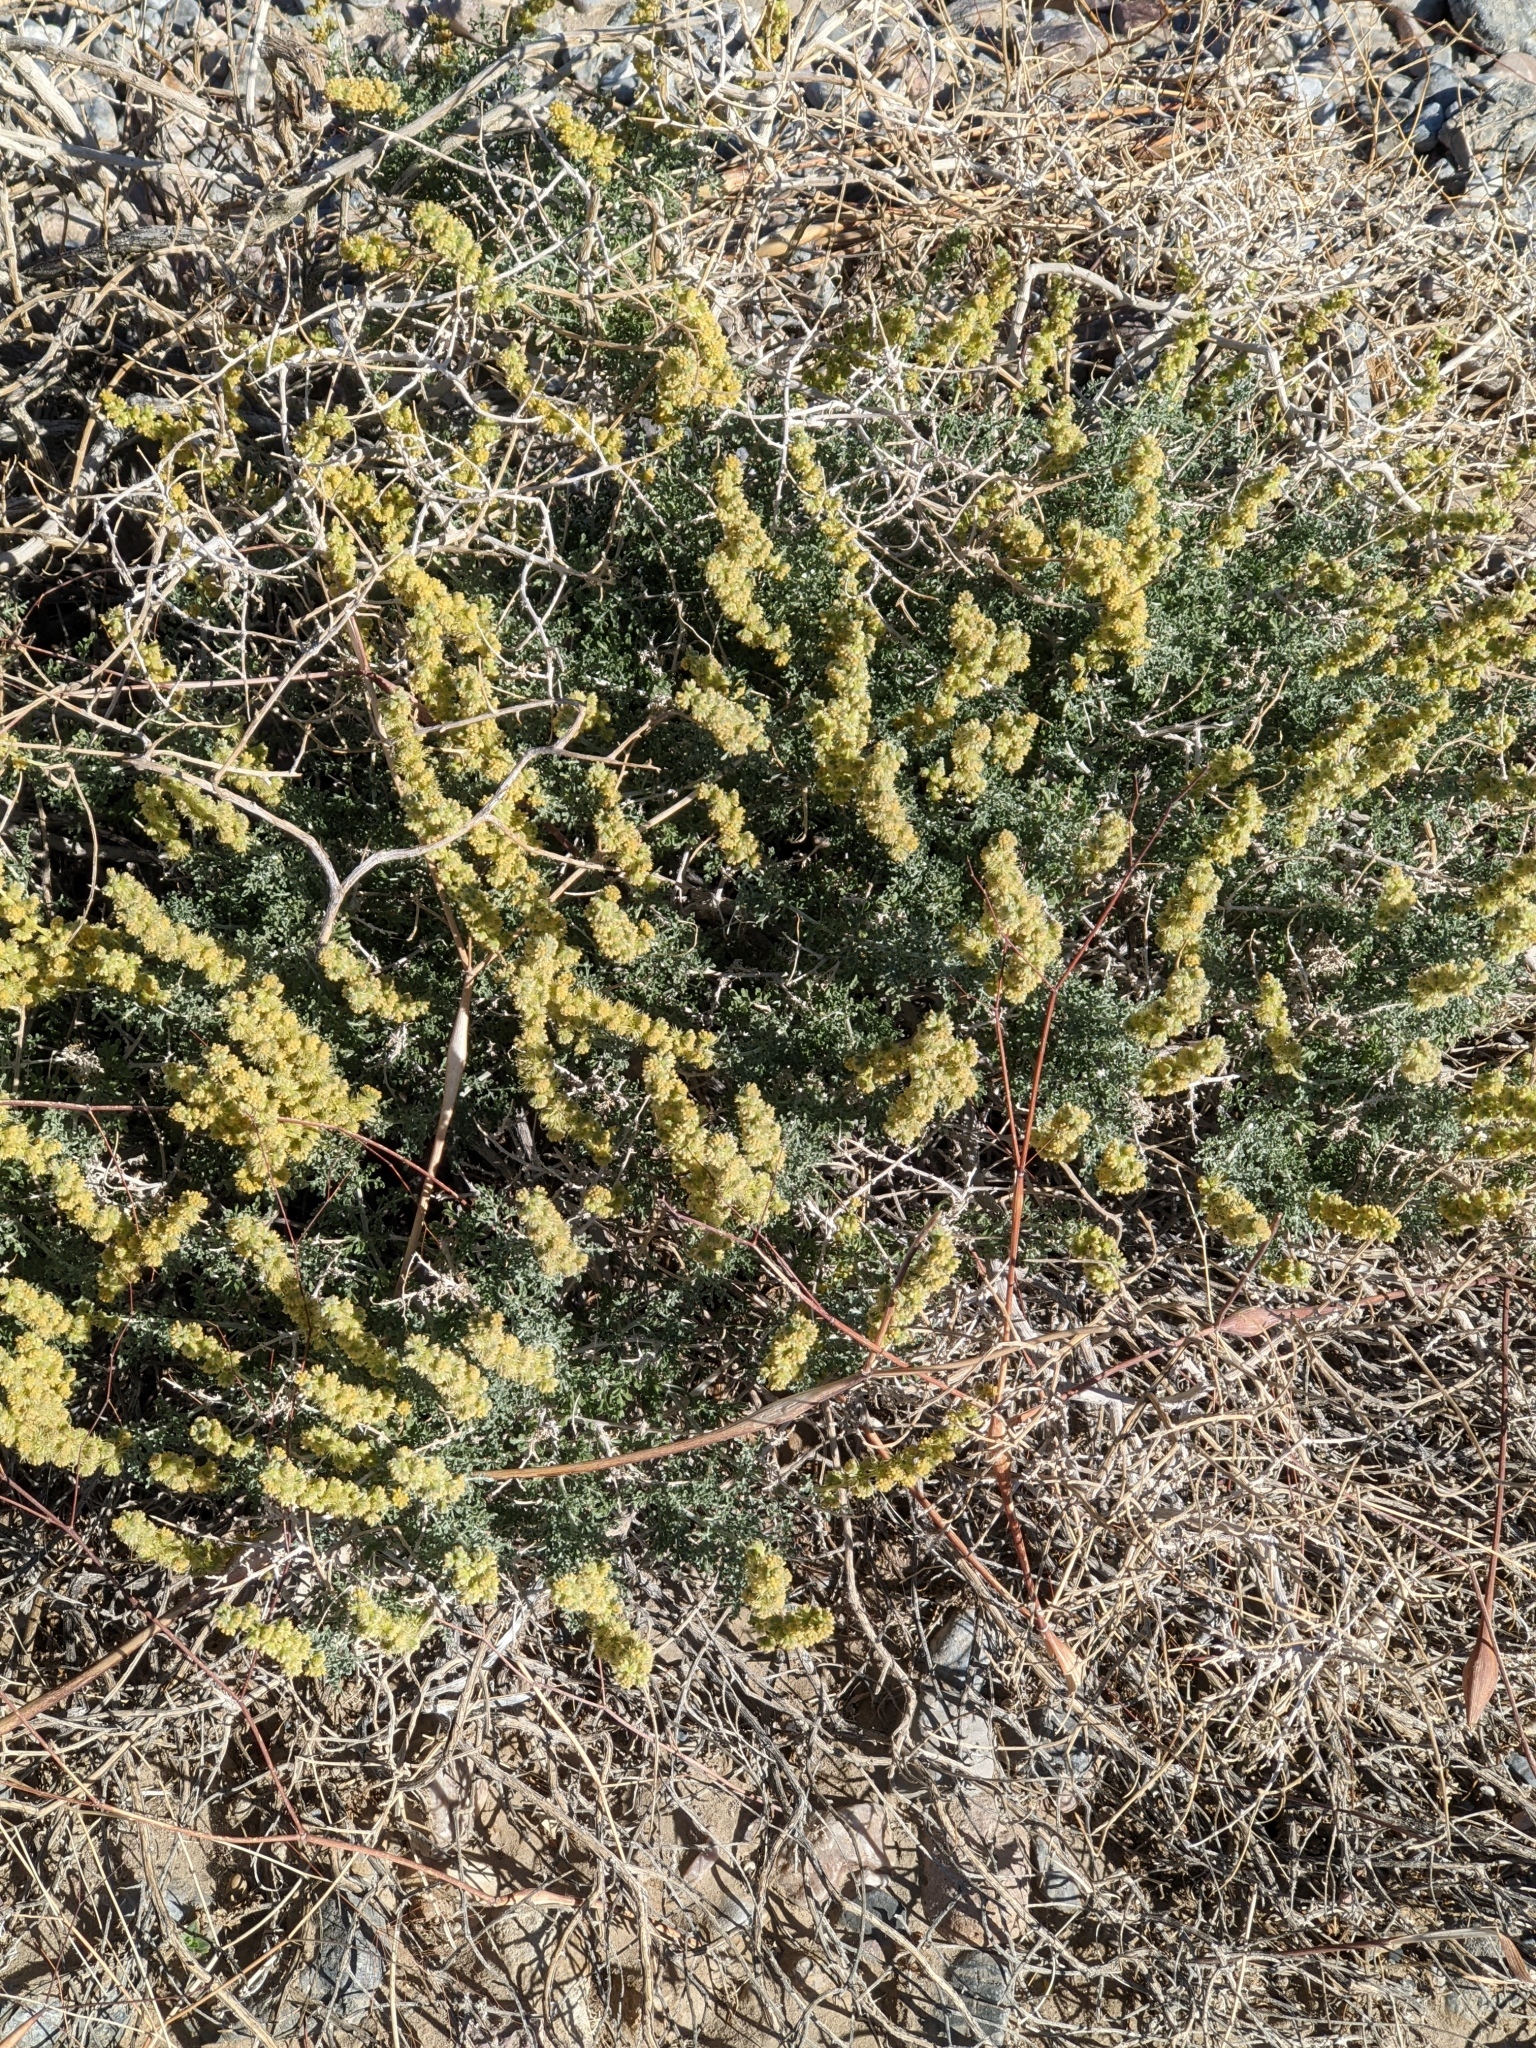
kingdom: Plantae
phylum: Tracheophyta
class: Magnoliopsida
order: Asterales
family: Asteraceae
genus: Ambrosia
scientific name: Ambrosia dumosa
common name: Bur-sage
